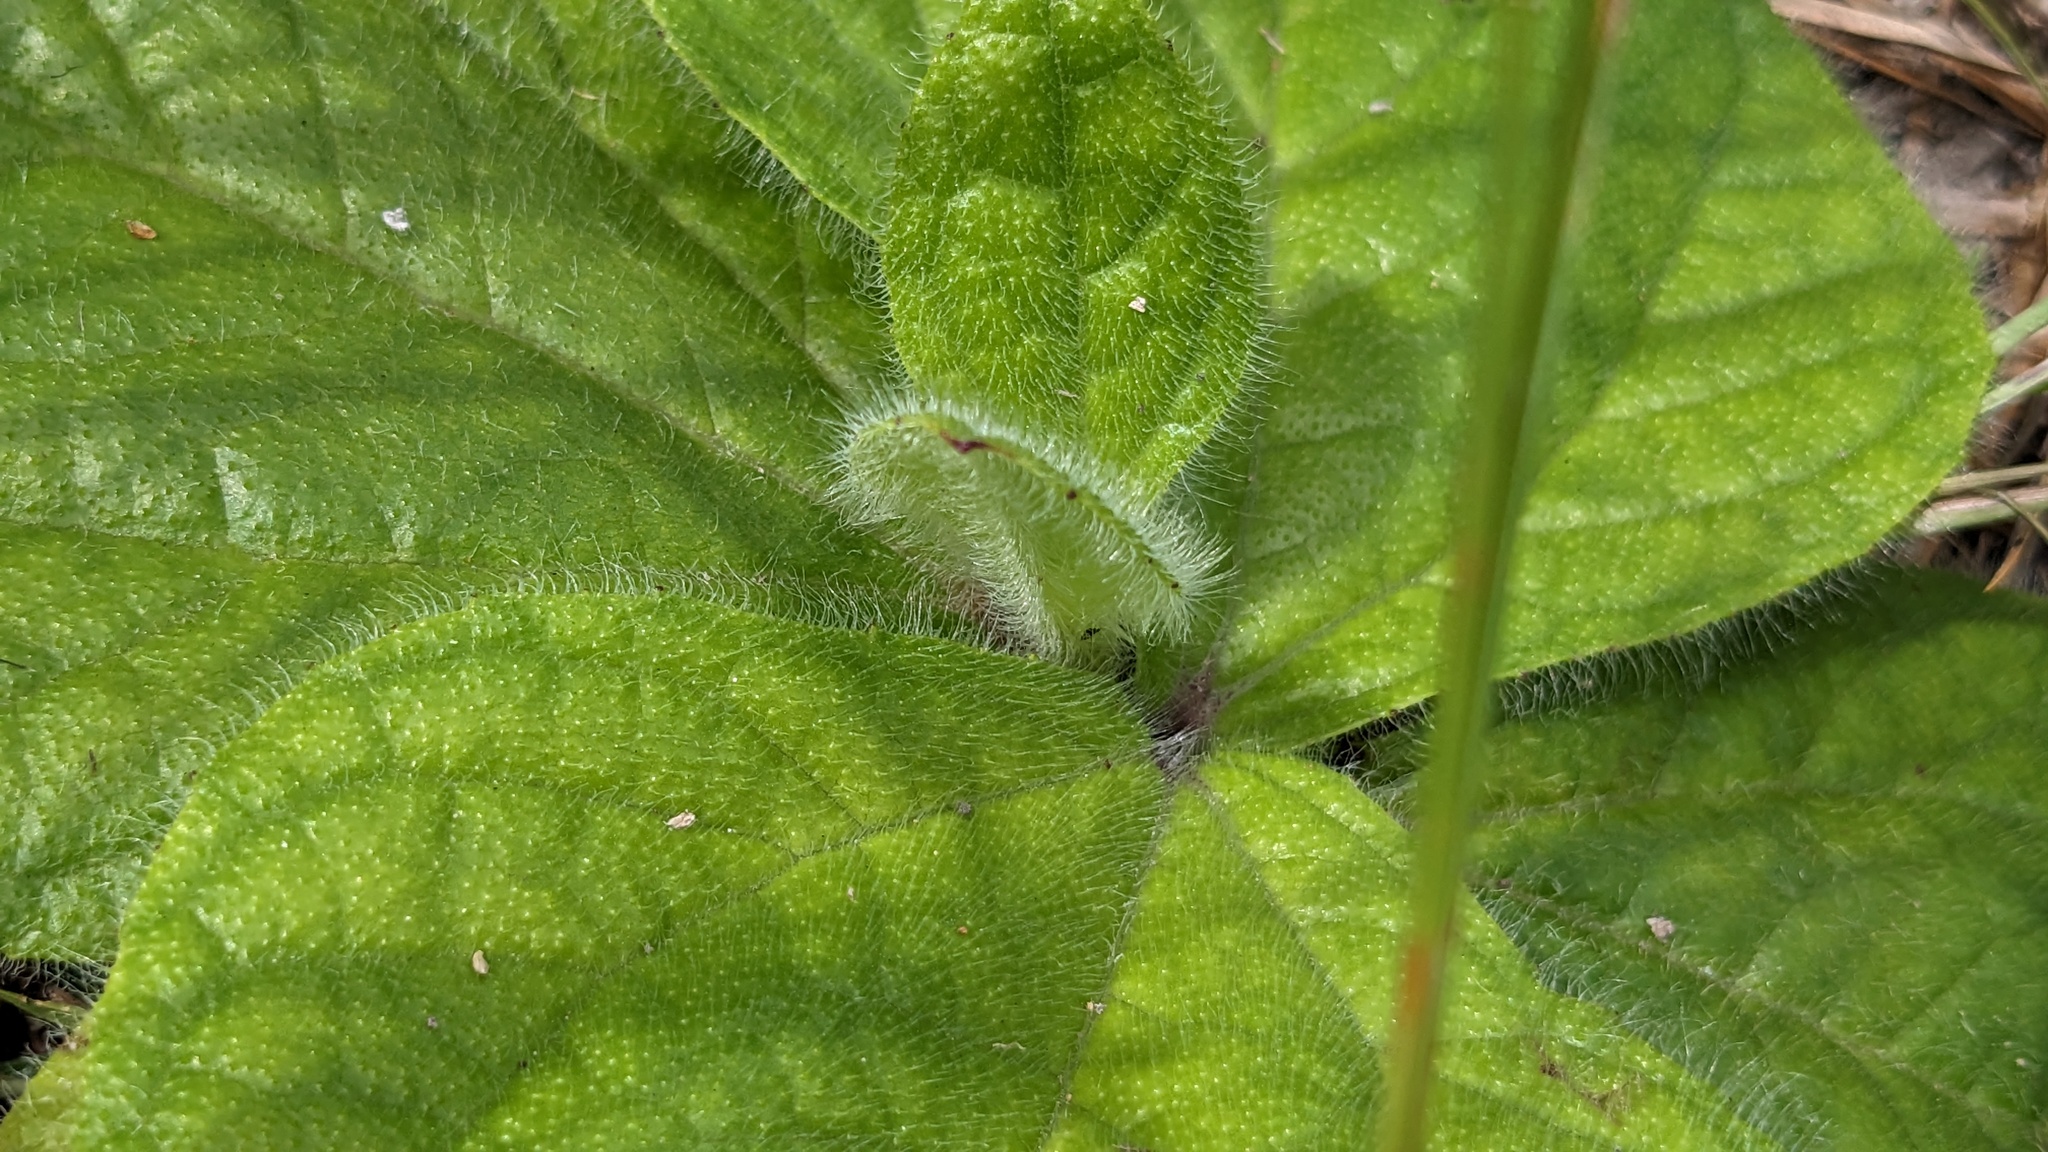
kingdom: Plantae
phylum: Tracheophyta
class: Magnoliopsida
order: Asterales
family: Asteraceae
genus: Helianthus
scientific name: Helianthus radula
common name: Pineland sunflower
